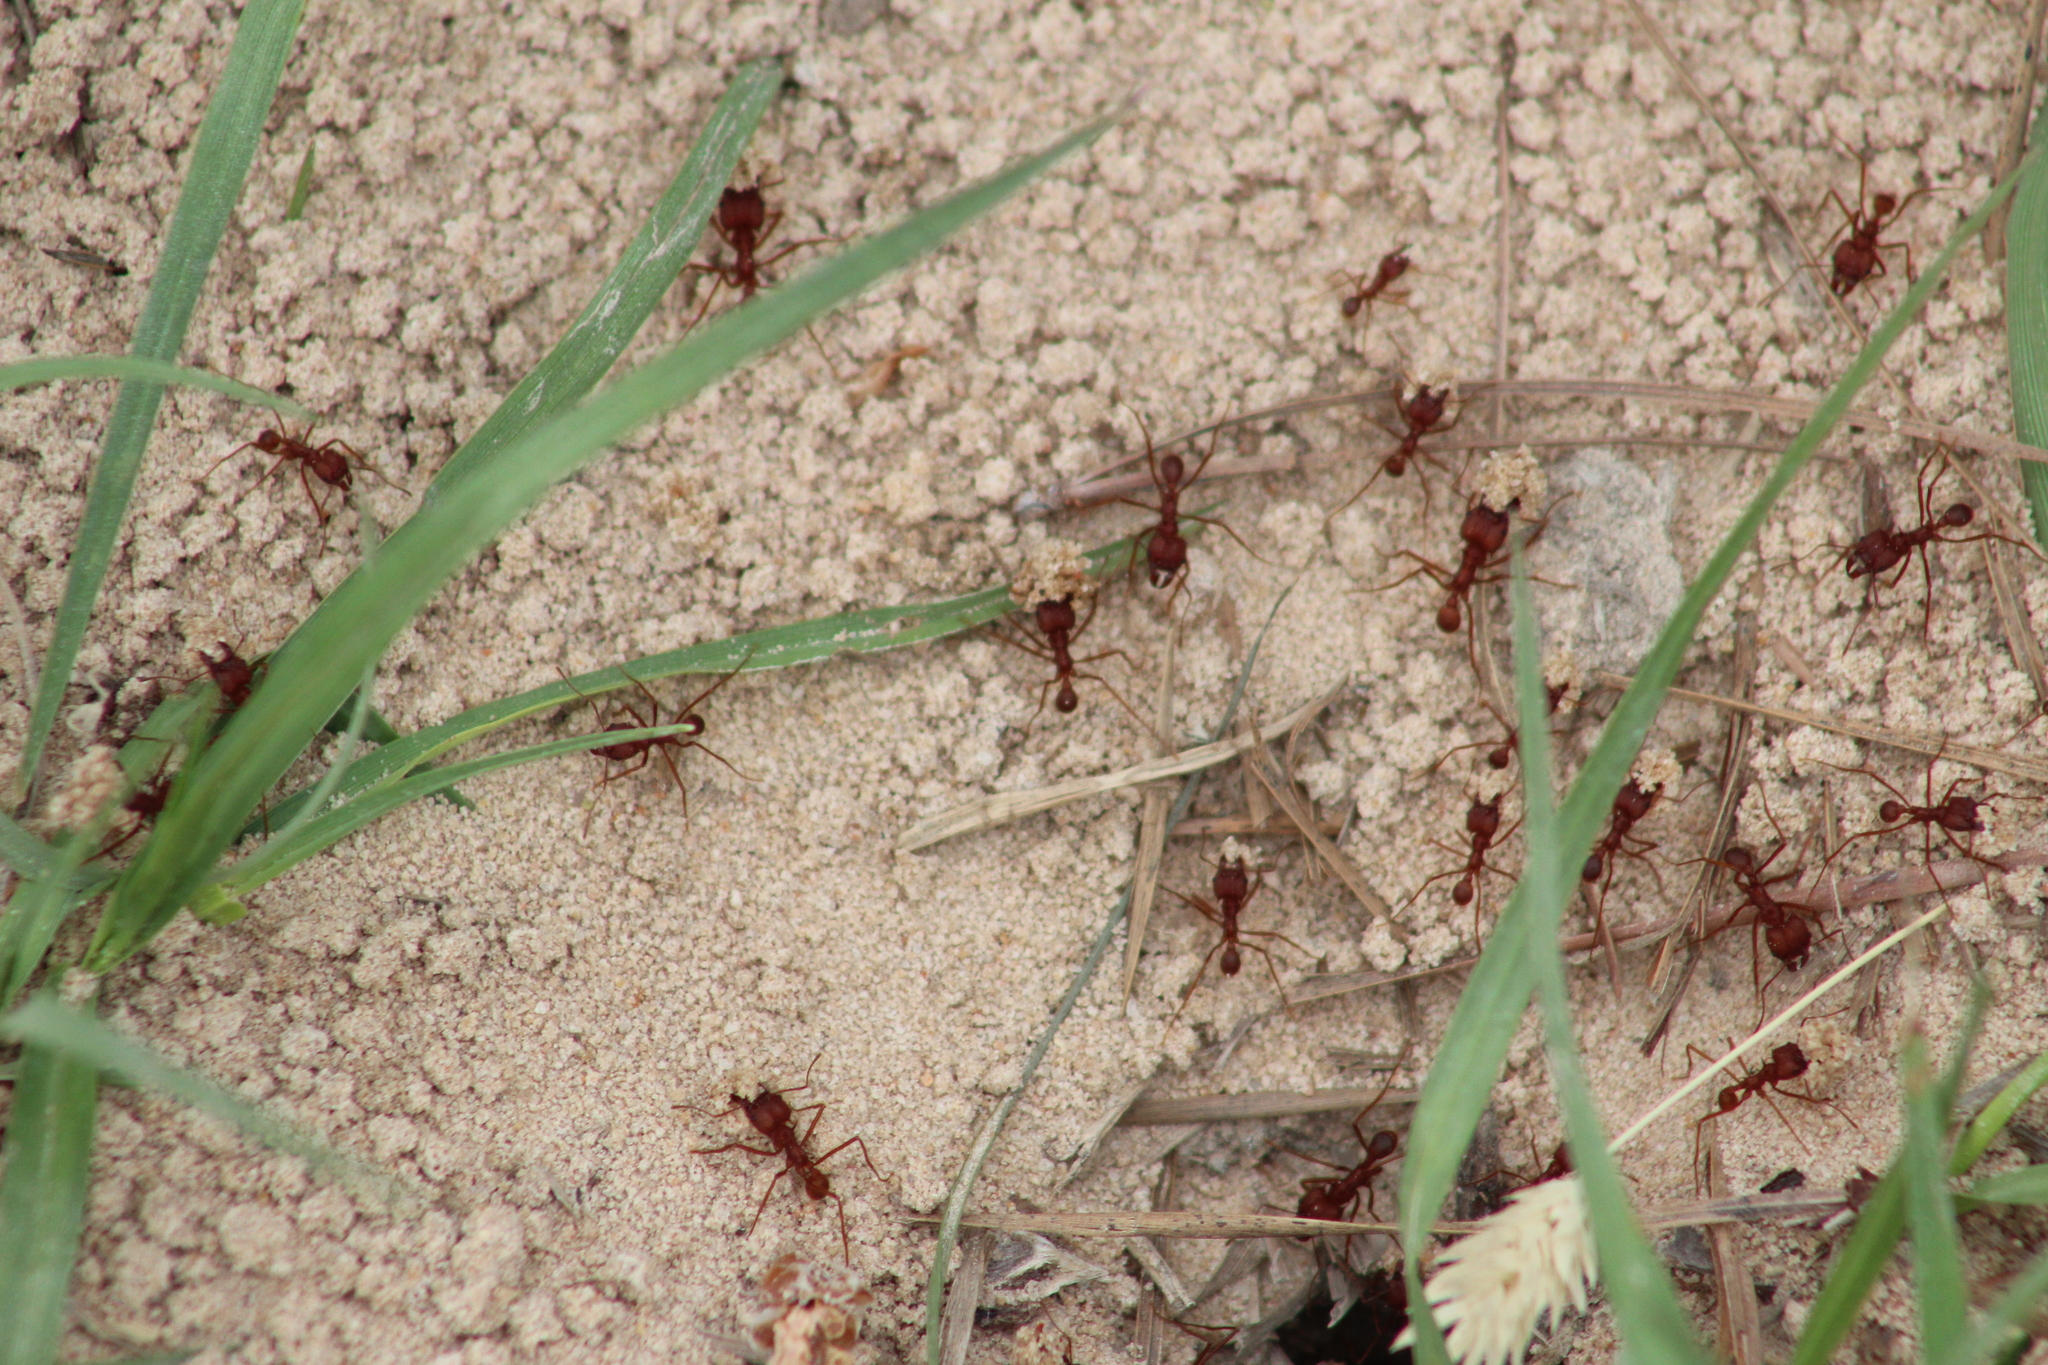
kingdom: Animalia
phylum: Arthropoda
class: Insecta
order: Hymenoptera
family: Formicidae
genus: Atta
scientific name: Atta texana
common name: Texas leafcutting ant
